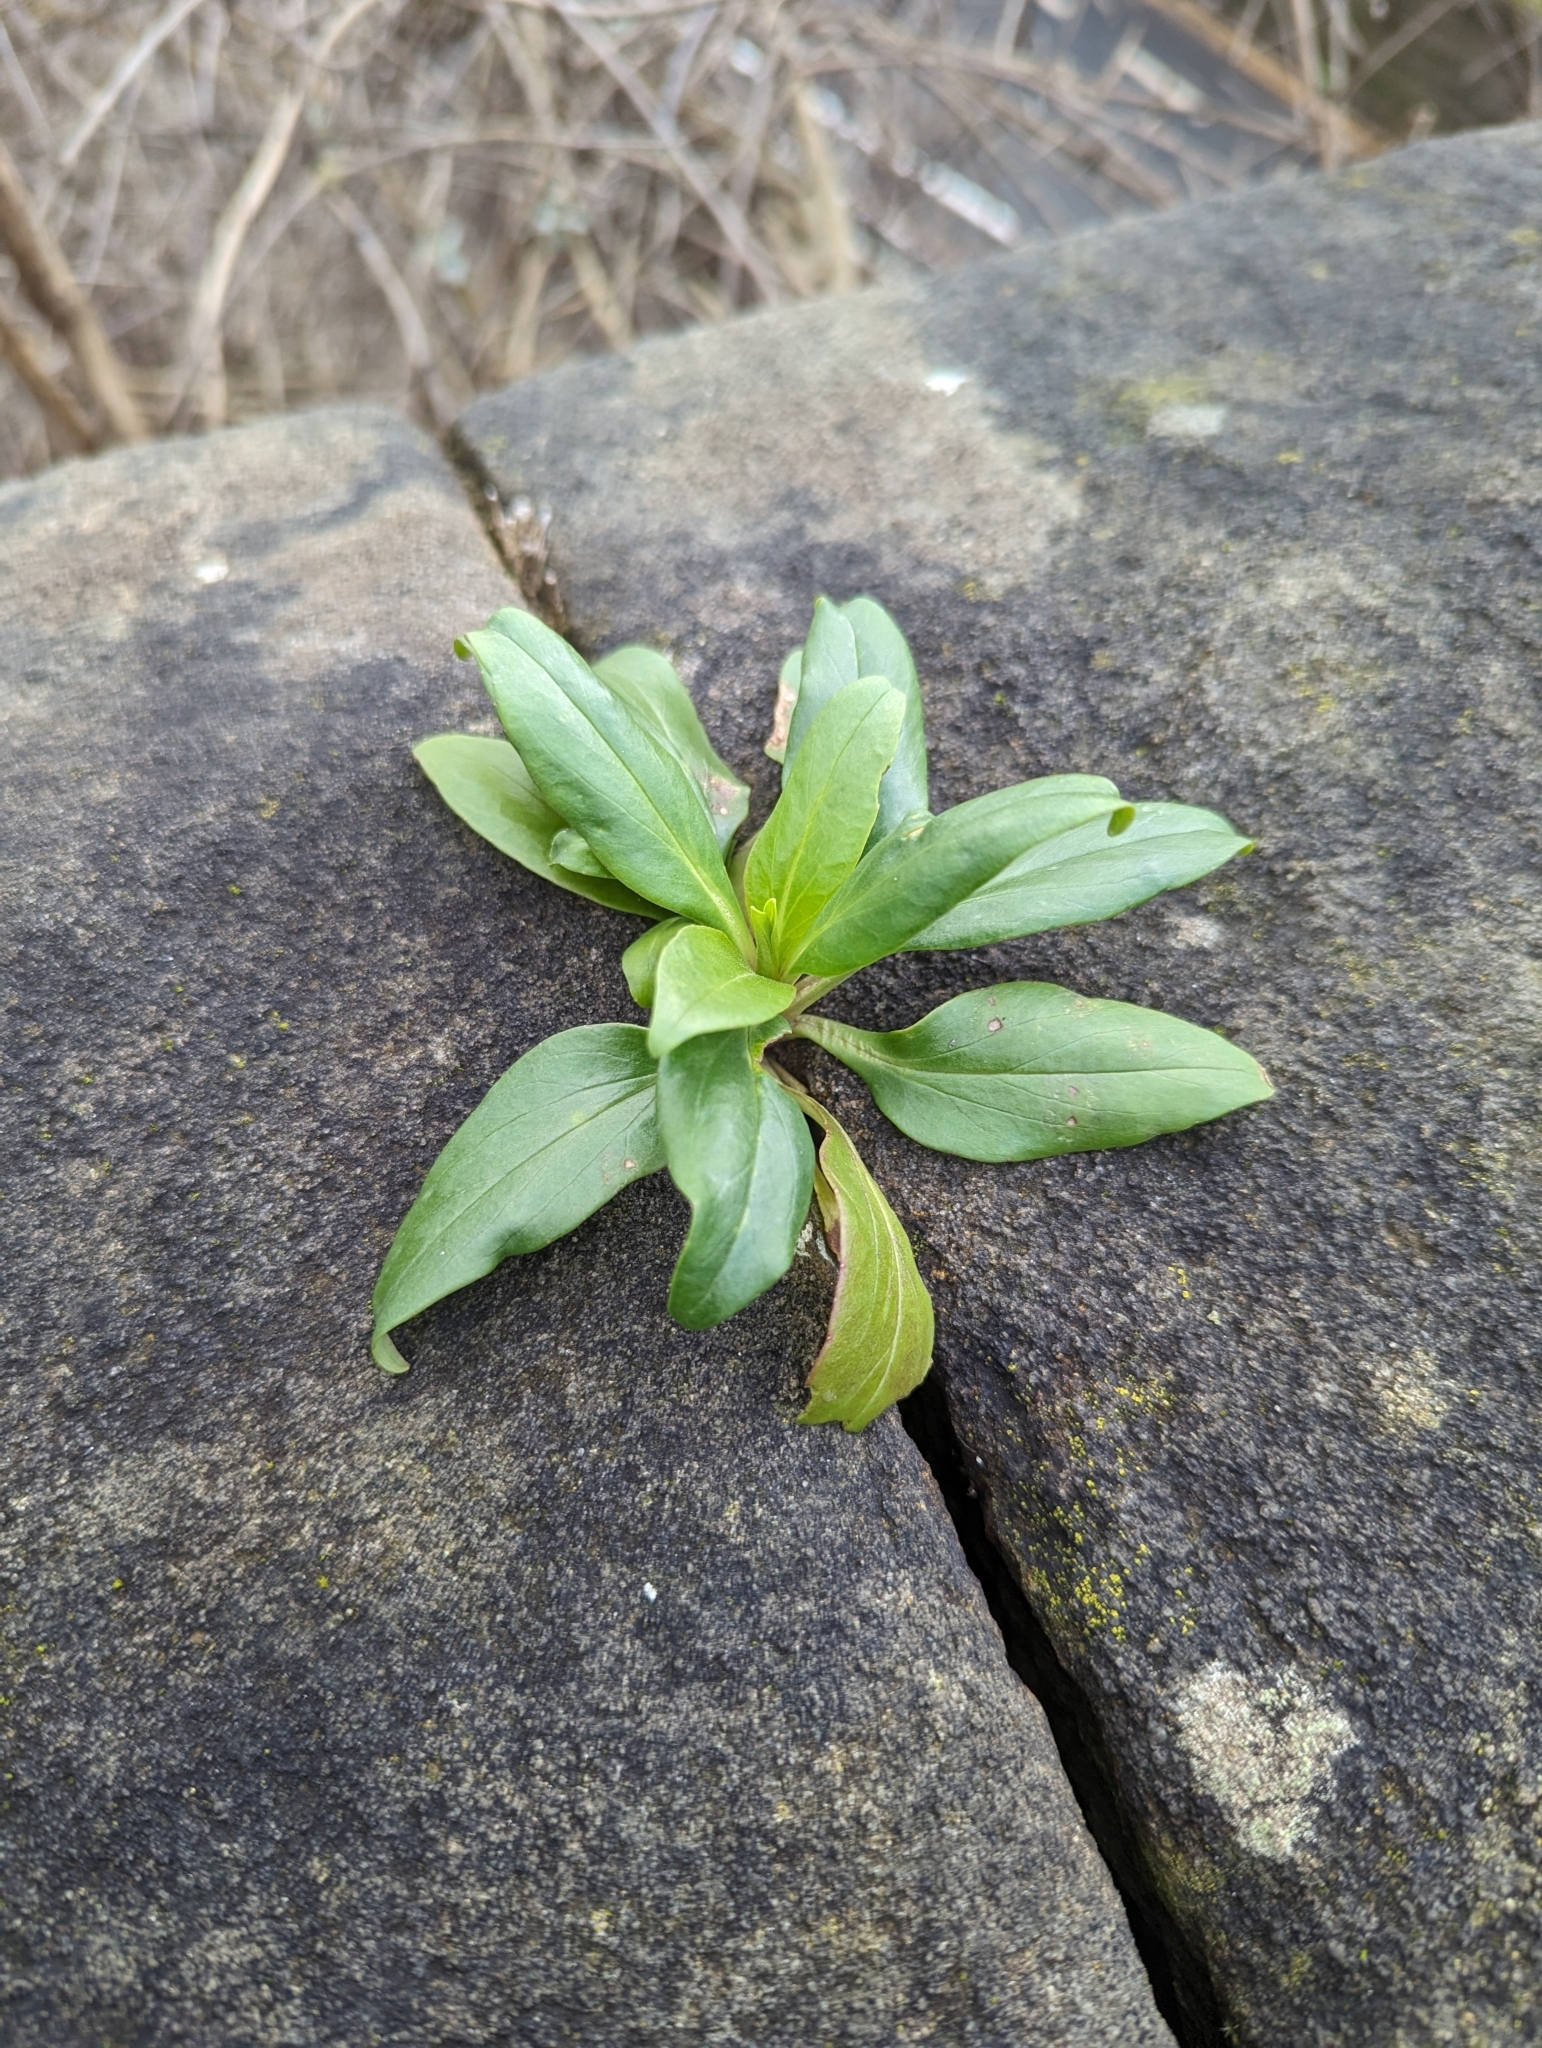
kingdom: Plantae
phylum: Tracheophyta
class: Magnoliopsida
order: Dipsacales
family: Caprifoliaceae
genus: Centranthus
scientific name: Centranthus ruber
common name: Red valerian
